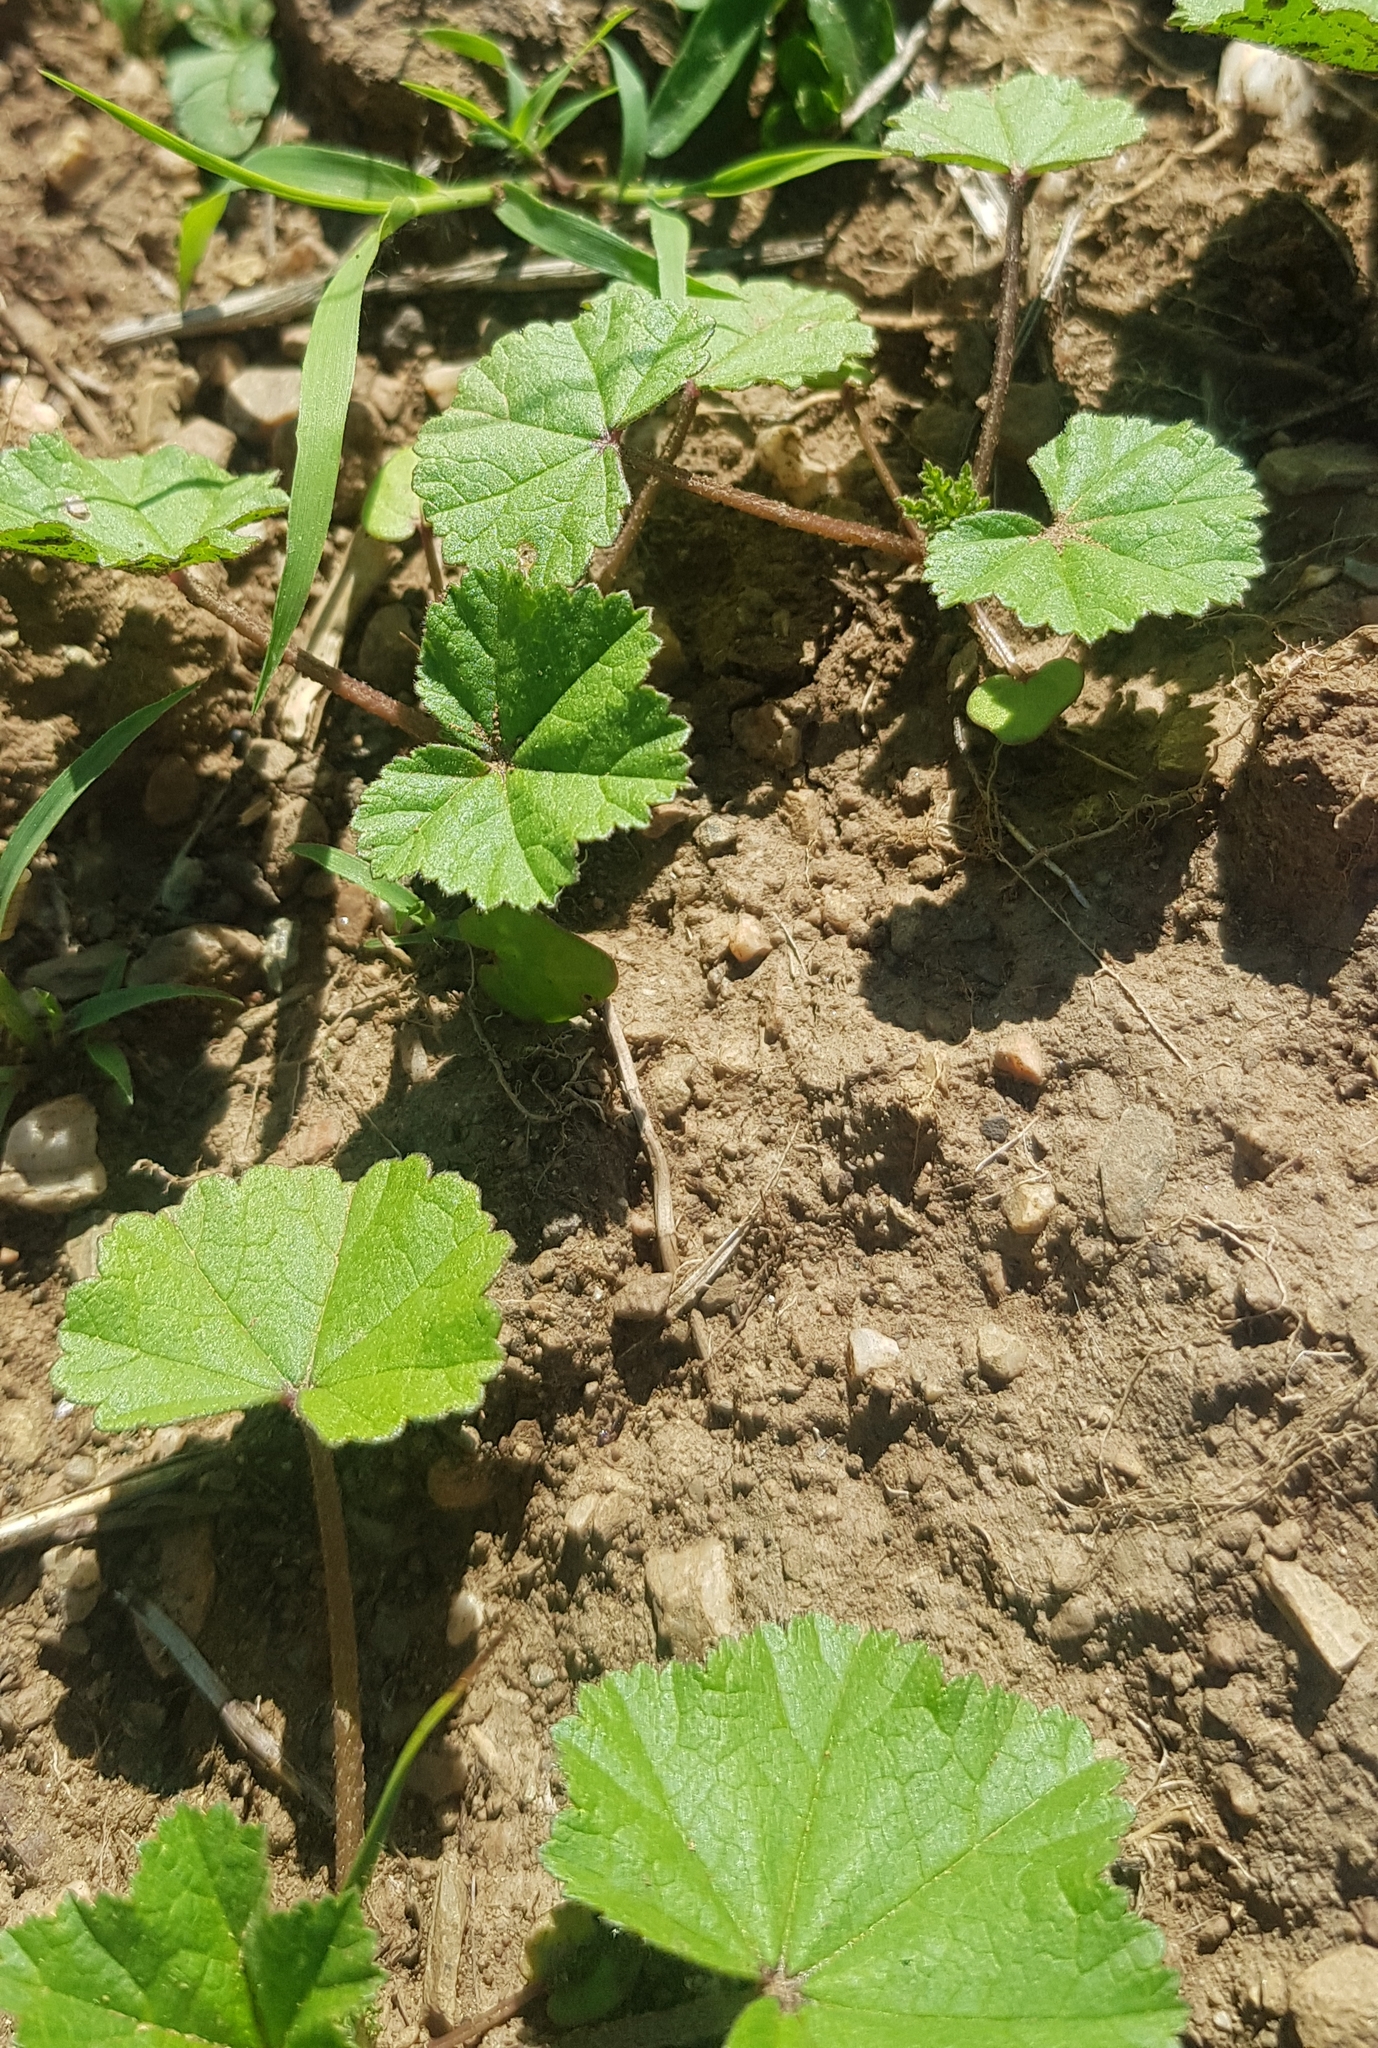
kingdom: Plantae
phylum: Tracheophyta
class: Magnoliopsida
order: Malvales
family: Malvaceae
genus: Malva
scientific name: Malva verticillata
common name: Chinese mallow
